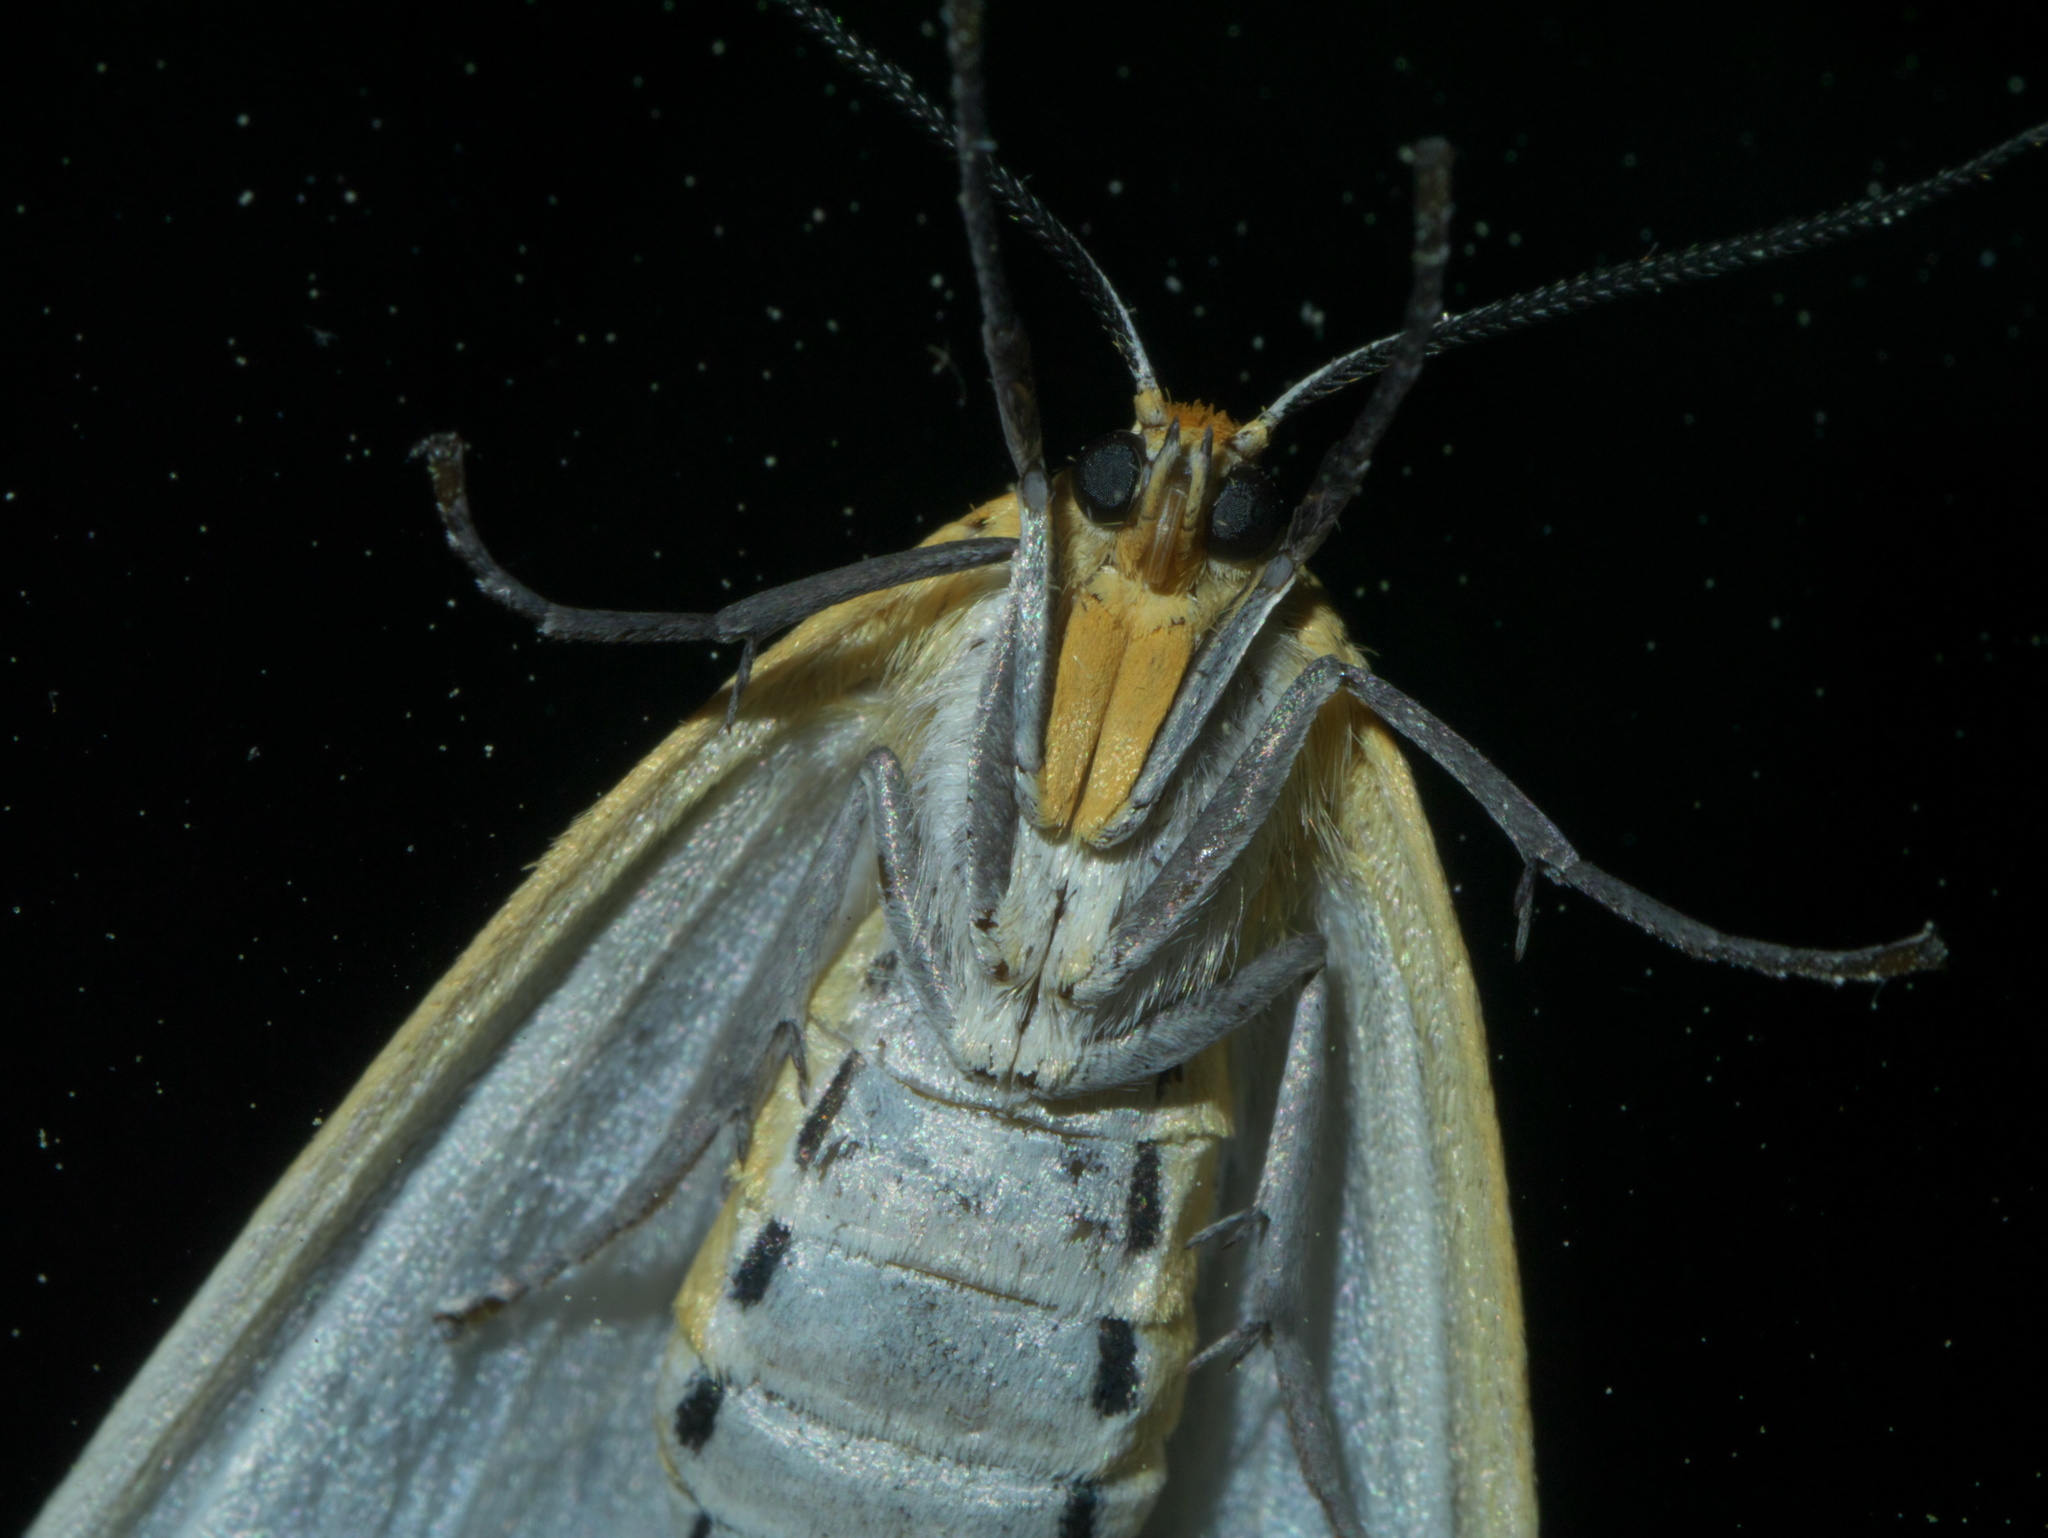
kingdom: Animalia
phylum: Arthropoda
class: Insecta
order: Lepidoptera
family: Erebidae
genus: Cycnia
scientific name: Cycnia tenera
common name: Delicate cycnia moth
